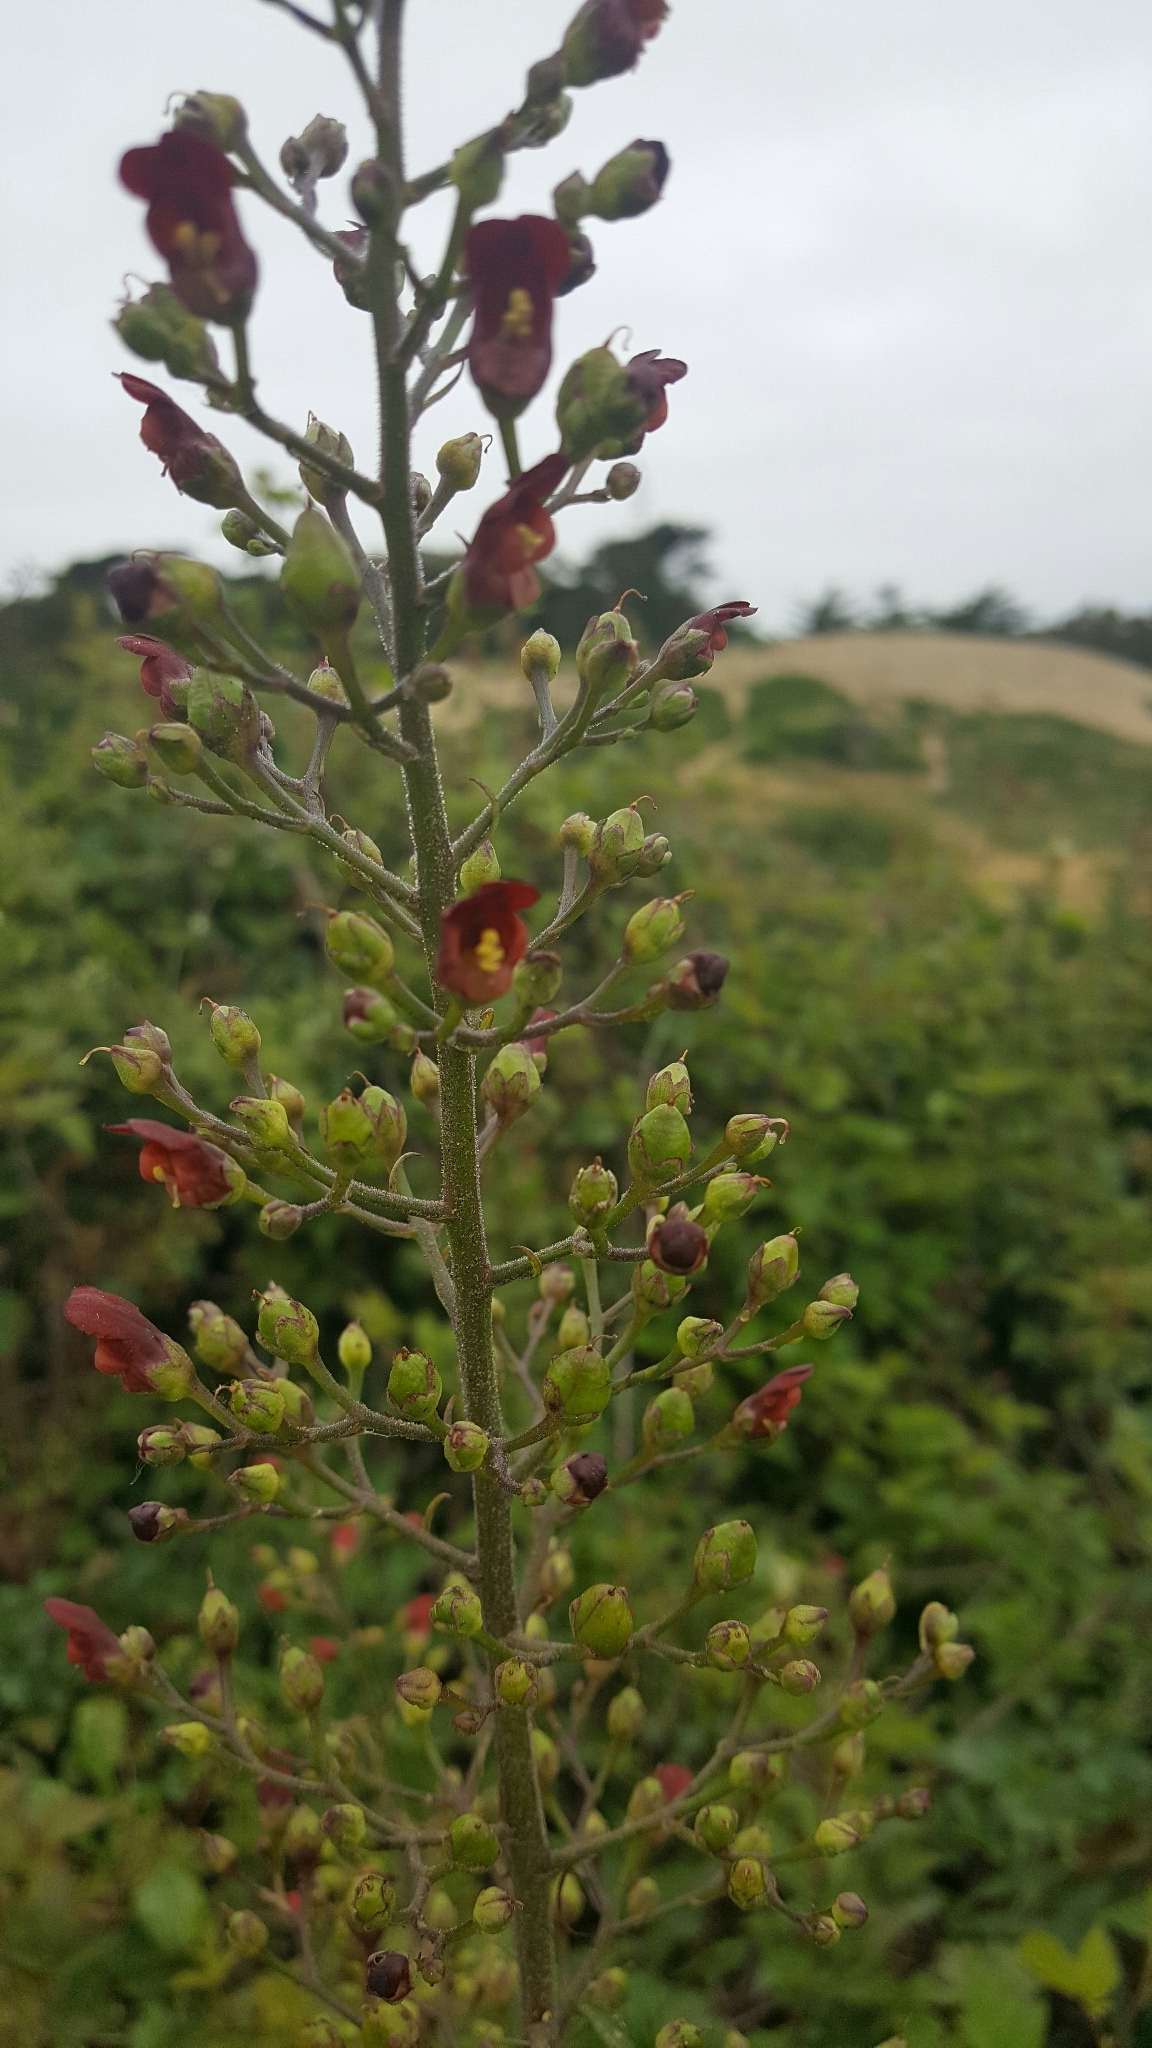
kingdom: Plantae
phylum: Tracheophyta
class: Magnoliopsida
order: Lamiales
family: Scrophulariaceae
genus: Scrophularia
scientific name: Scrophularia californica
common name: California figwort
